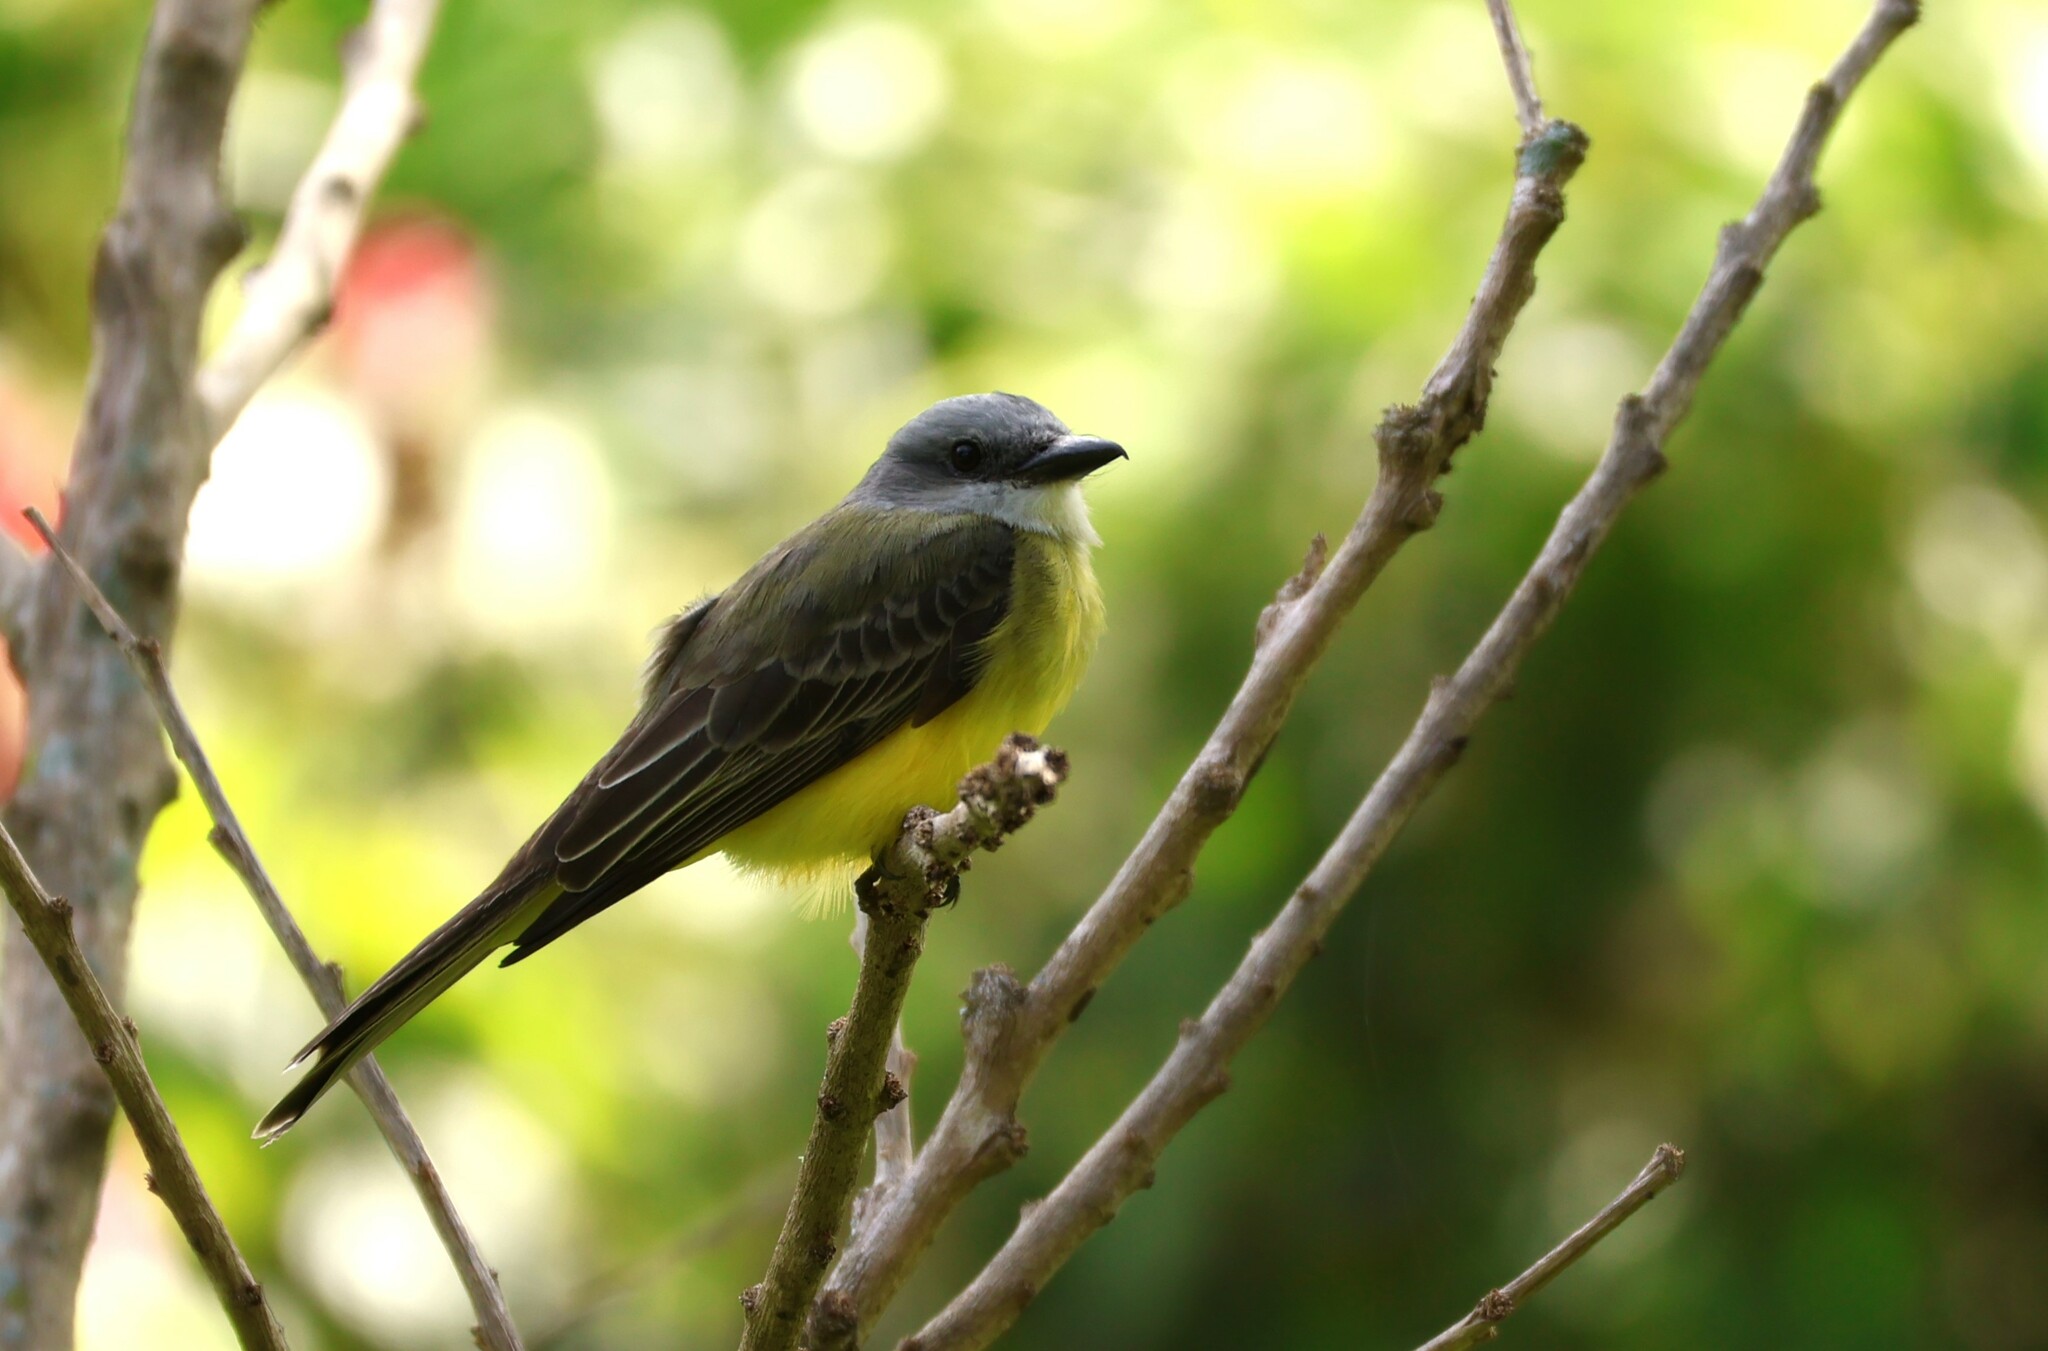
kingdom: Animalia
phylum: Chordata
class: Aves
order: Passeriformes
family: Tyrannidae
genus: Tyrannus
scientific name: Tyrannus melancholicus
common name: Tropical kingbird
